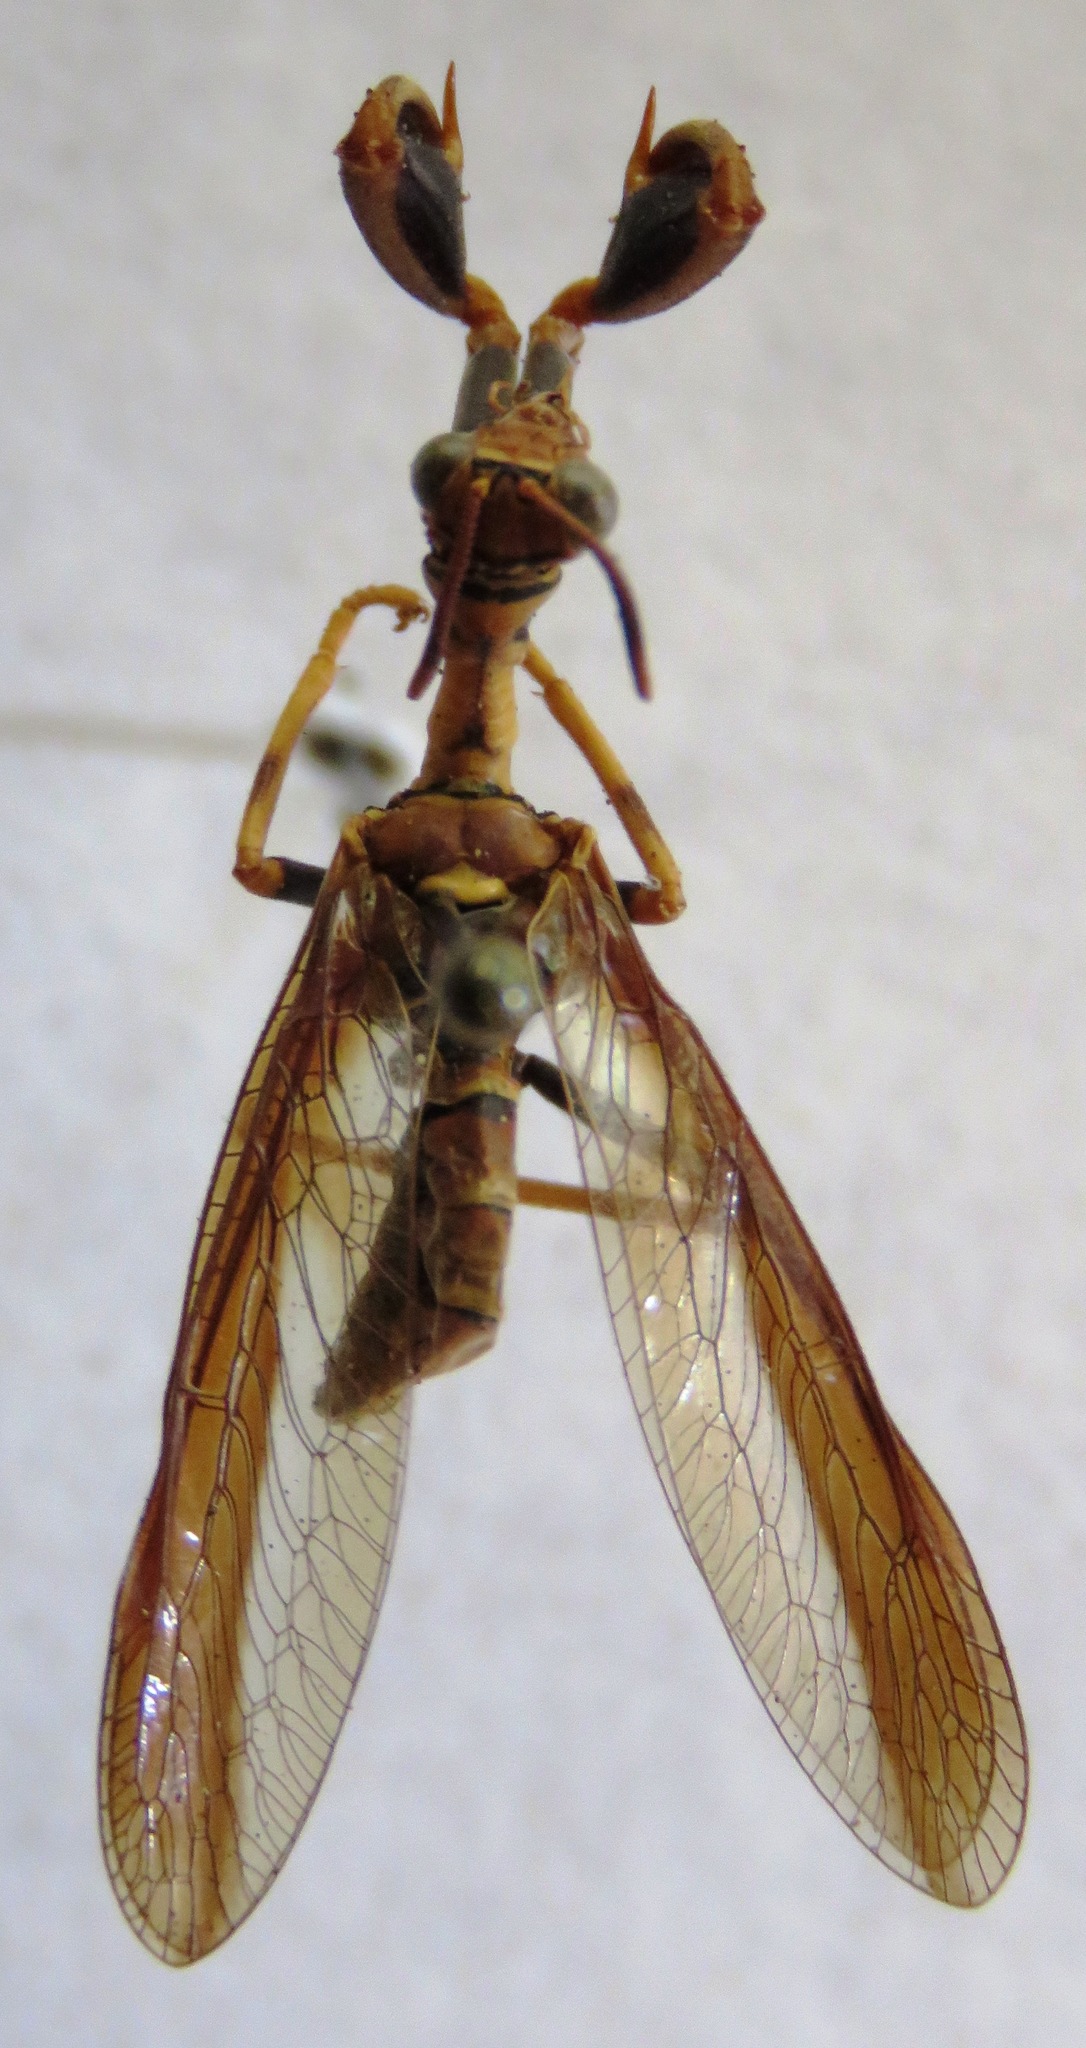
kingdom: Animalia
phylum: Arthropoda
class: Insecta
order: Neuroptera
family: Mantispidae
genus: Climaciella
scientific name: Climaciella brunnea
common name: Brown wasp mantidfly
